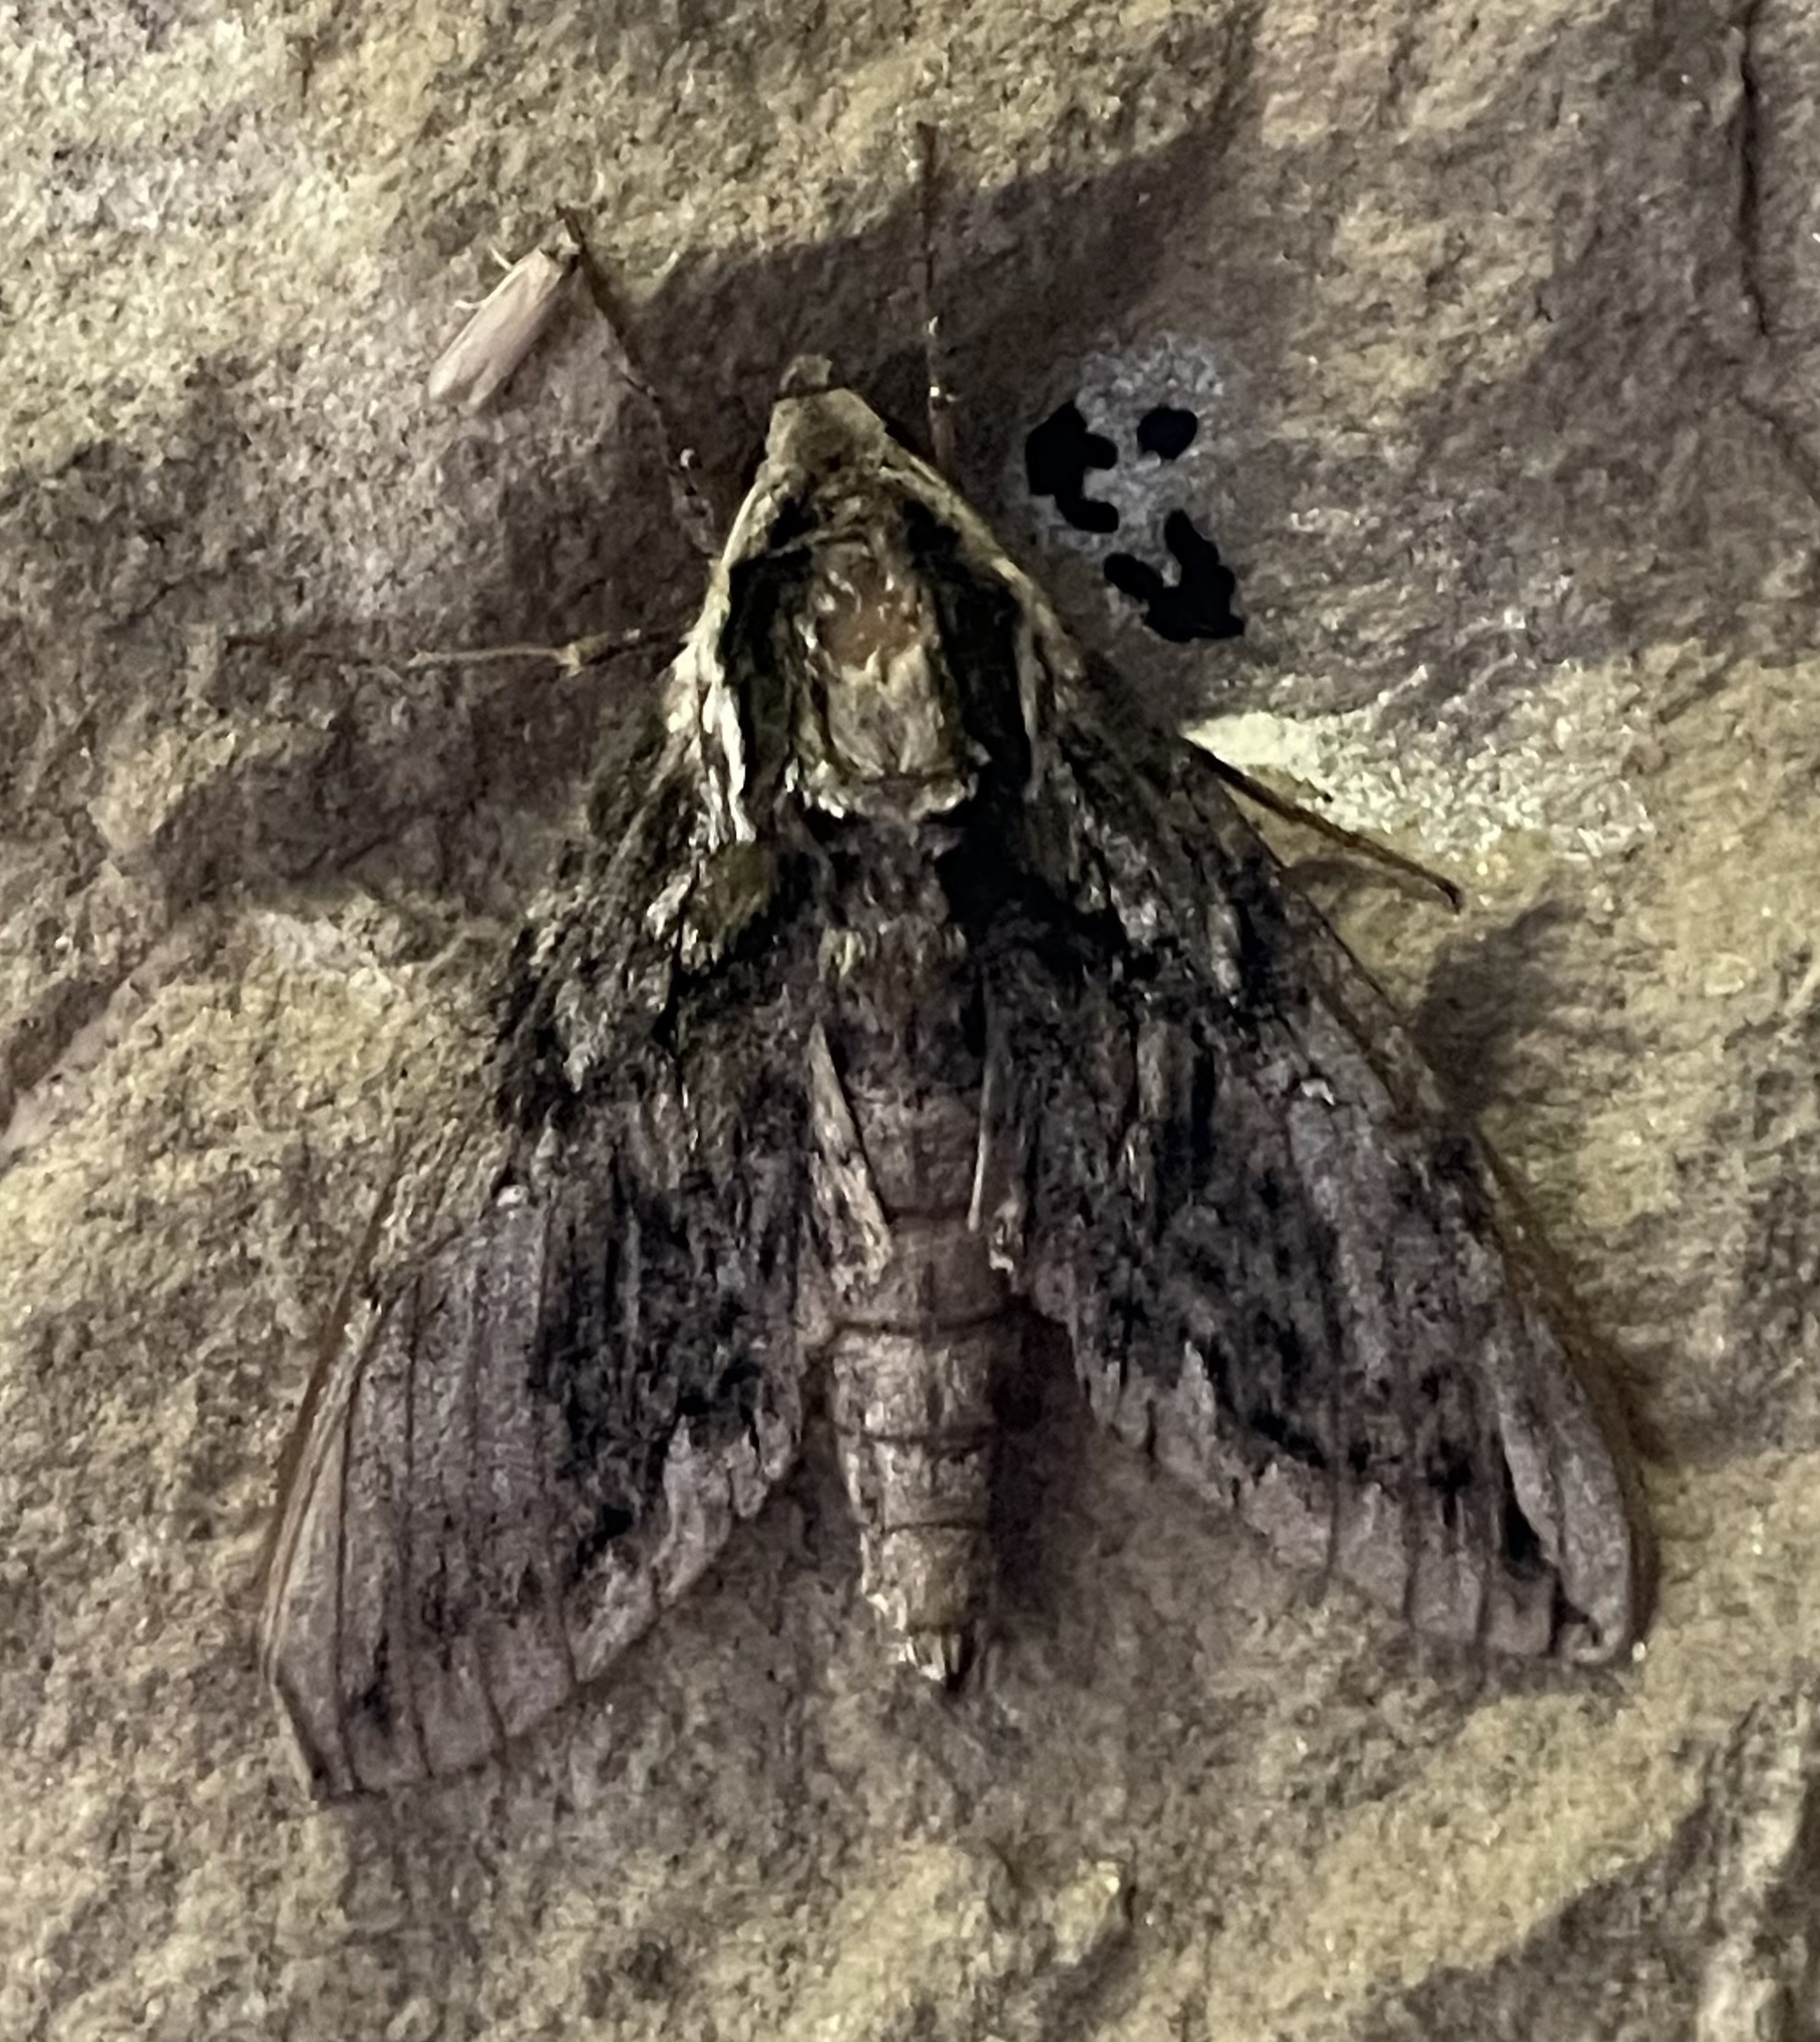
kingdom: Animalia
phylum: Arthropoda
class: Insecta
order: Lepidoptera
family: Sphingidae
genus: Ceratomia
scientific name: Ceratomia hageni
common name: Hagen's sphinx
